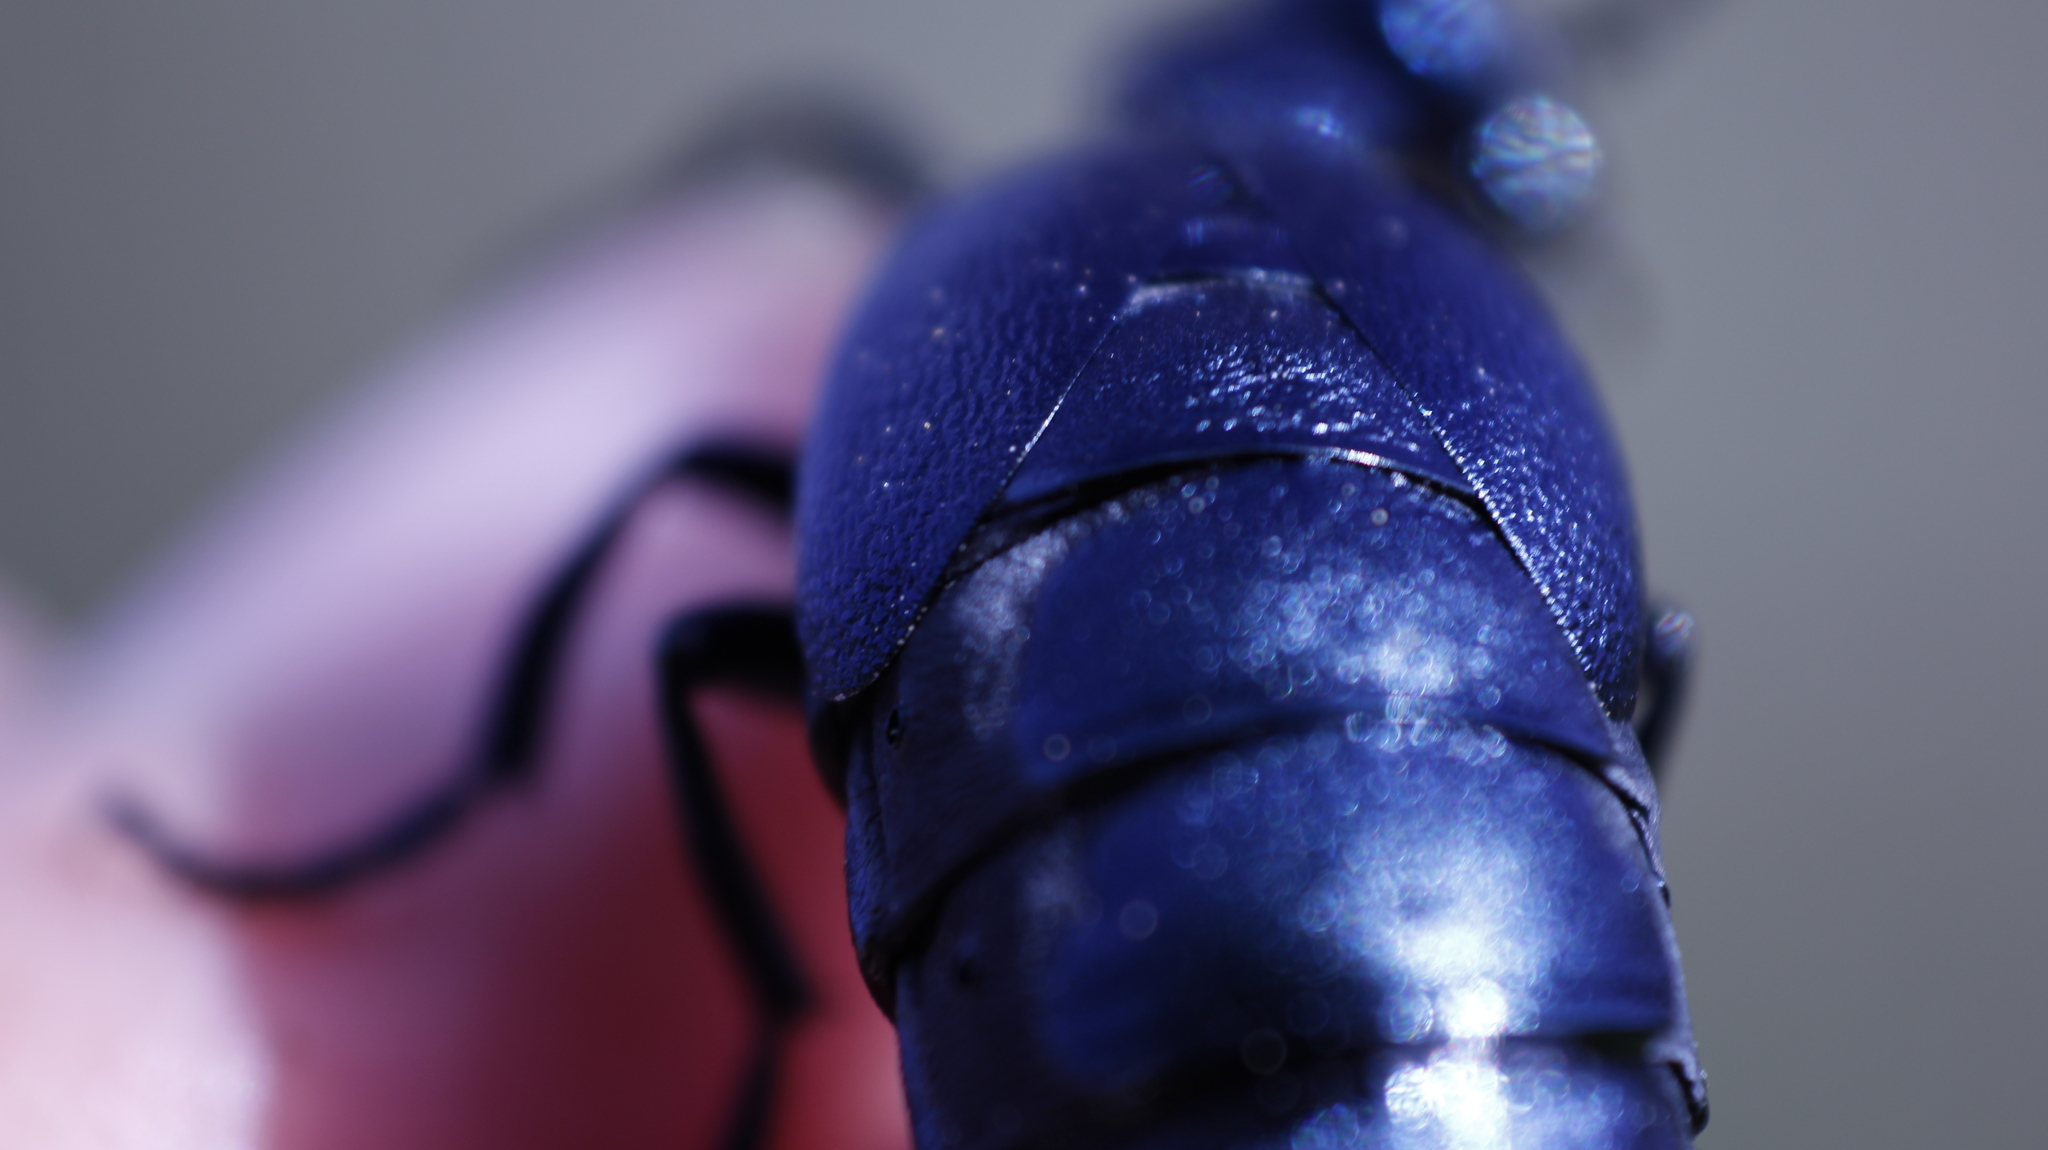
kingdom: Animalia
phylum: Arthropoda
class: Insecta
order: Coleoptera
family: Meloidae
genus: Meloe
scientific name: Meloe violaceus
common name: Violet oil-beetle
